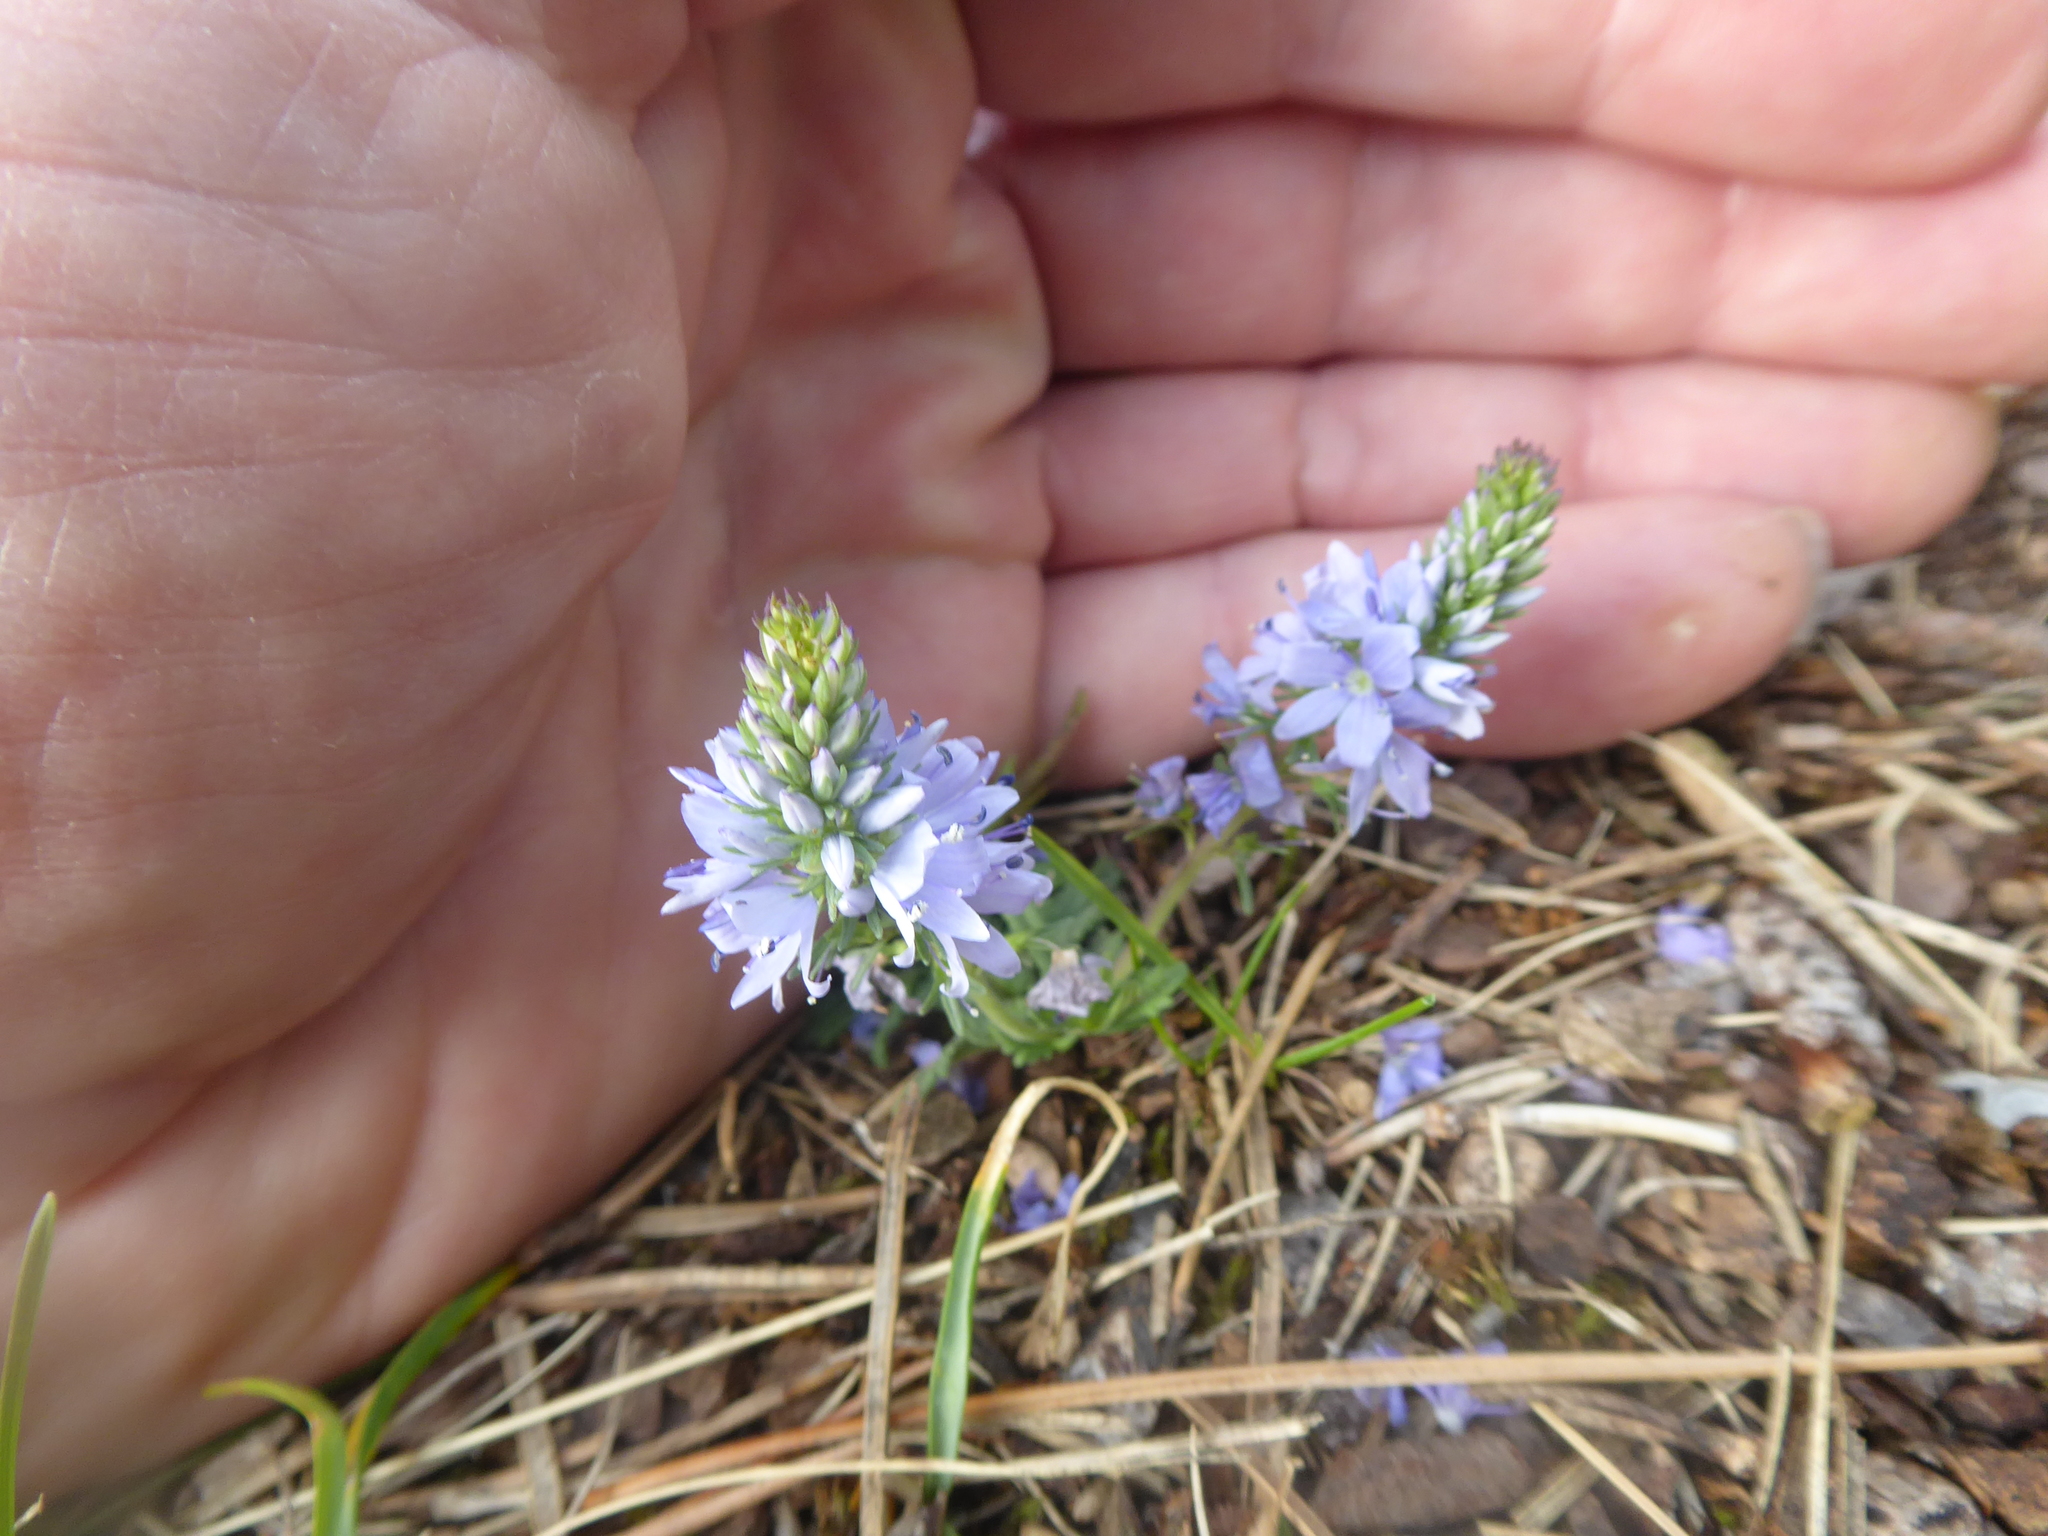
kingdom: Plantae
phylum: Tracheophyta
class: Magnoliopsida
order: Lamiales
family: Plantaginaceae
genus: Veronica
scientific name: Veronica prostrata
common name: Prostrate speedwell
